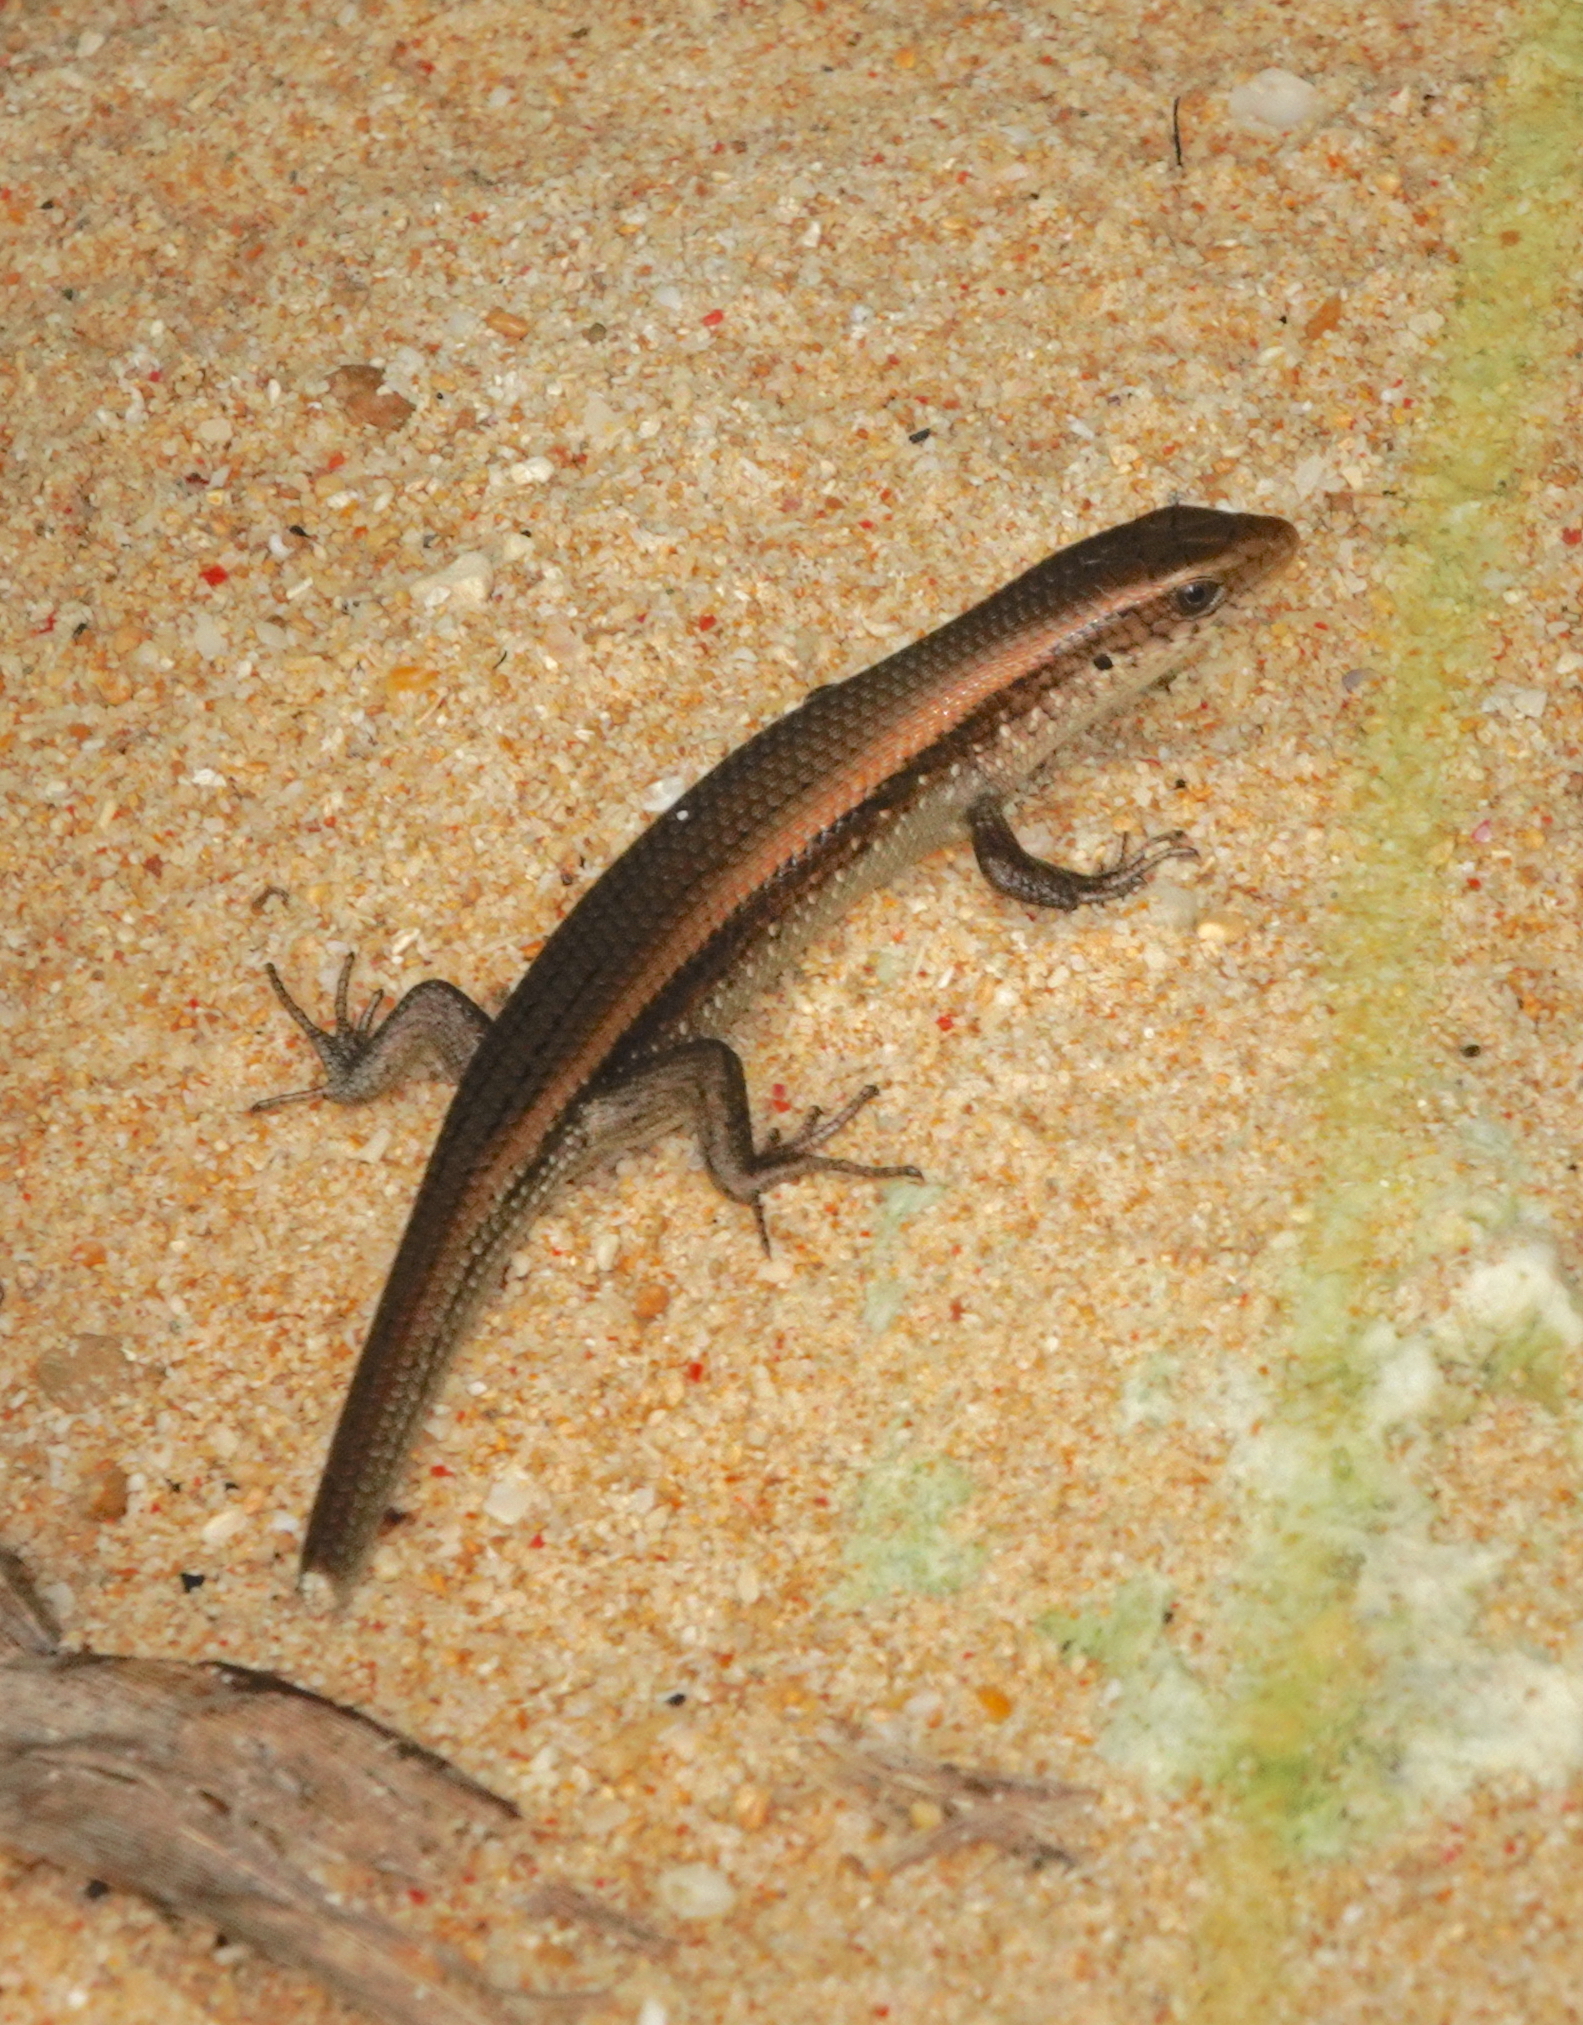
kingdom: Animalia
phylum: Chordata
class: Squamata
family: Scincidae
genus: Eutropis
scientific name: Eutropis multifasciata
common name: Common mabuya
